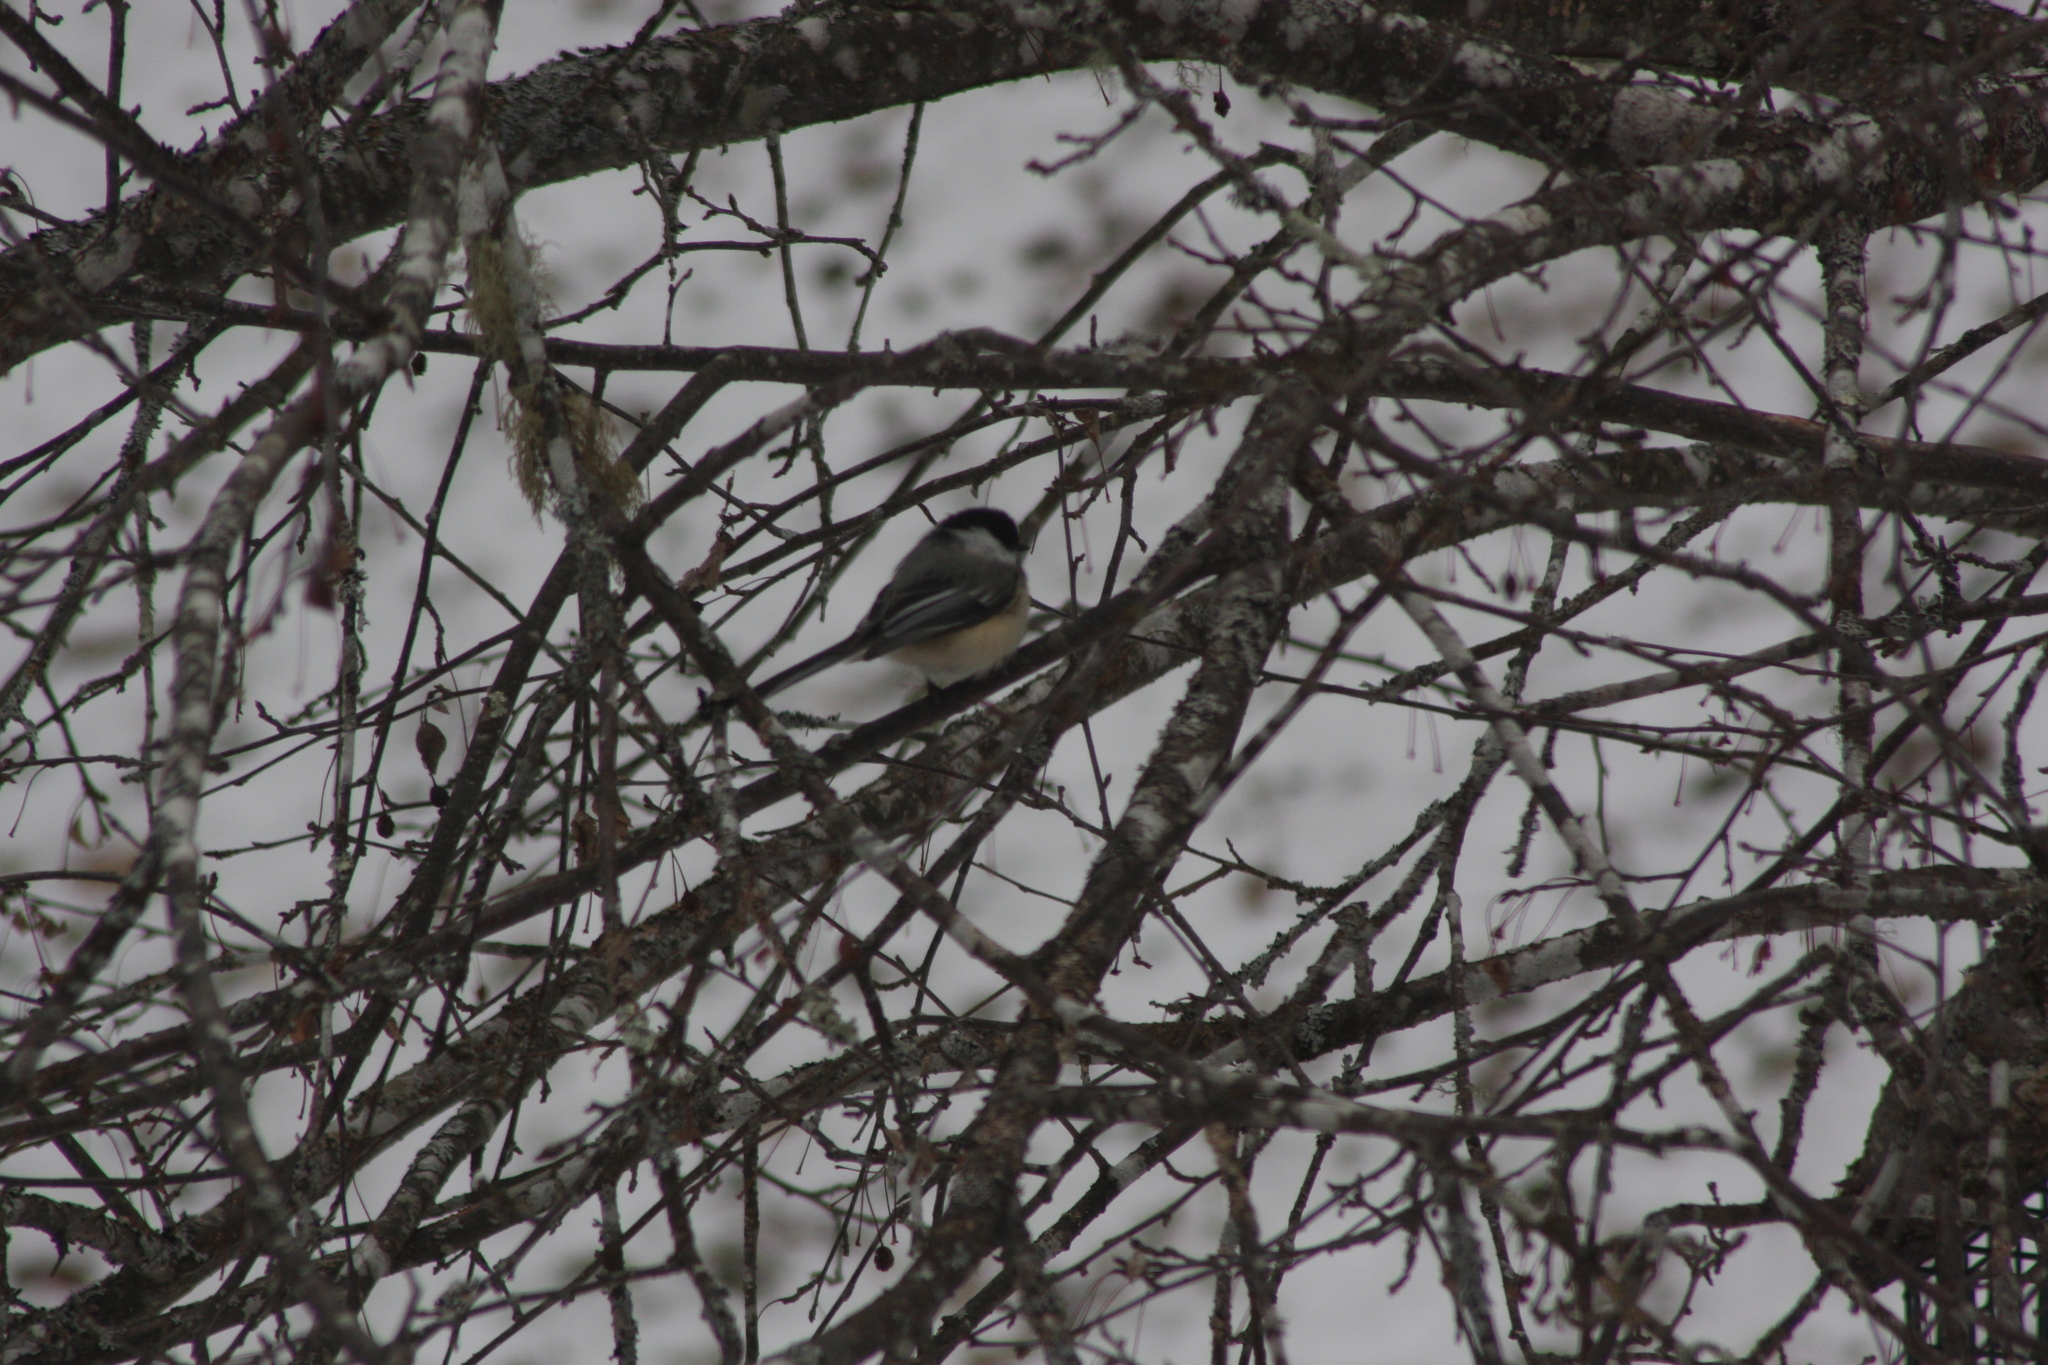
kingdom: Animalia
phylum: Chordata
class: Aves
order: Passeriformes
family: Paridae
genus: Poecile
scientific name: Poecile atricapillus
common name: Black-capped chickadee
